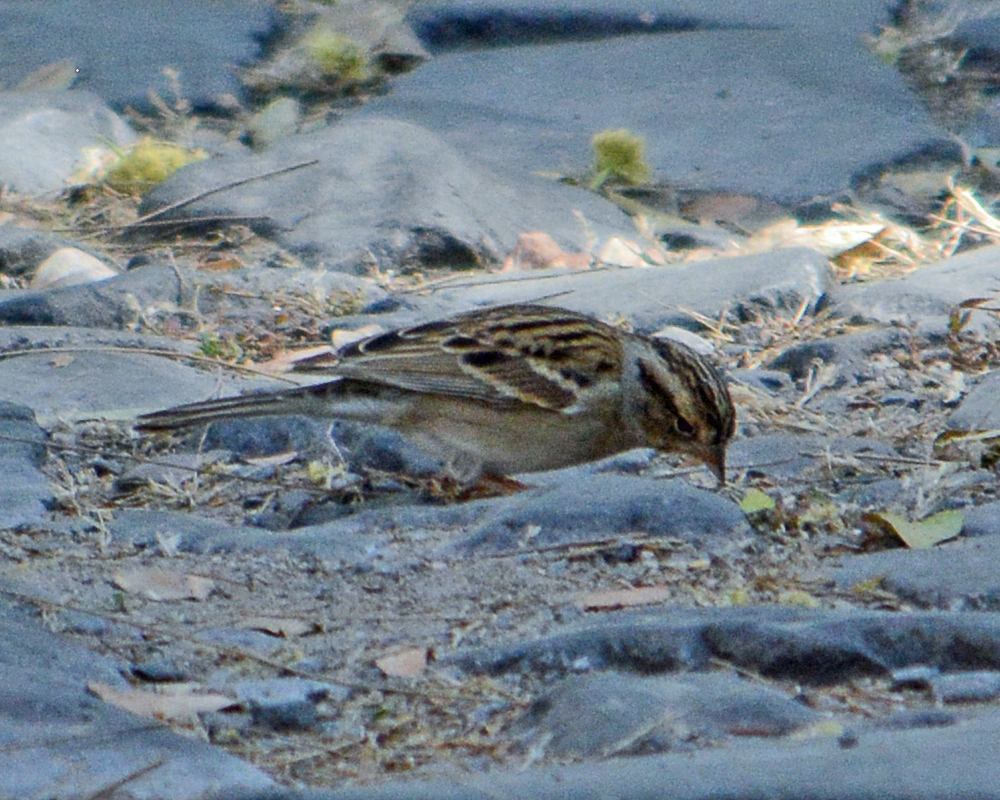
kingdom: Animalia
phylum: Chordata
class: Aves
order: Passeriformes
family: Passerellidae
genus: Spizella
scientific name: Spizella pallida
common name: Clay-colored sparrow
